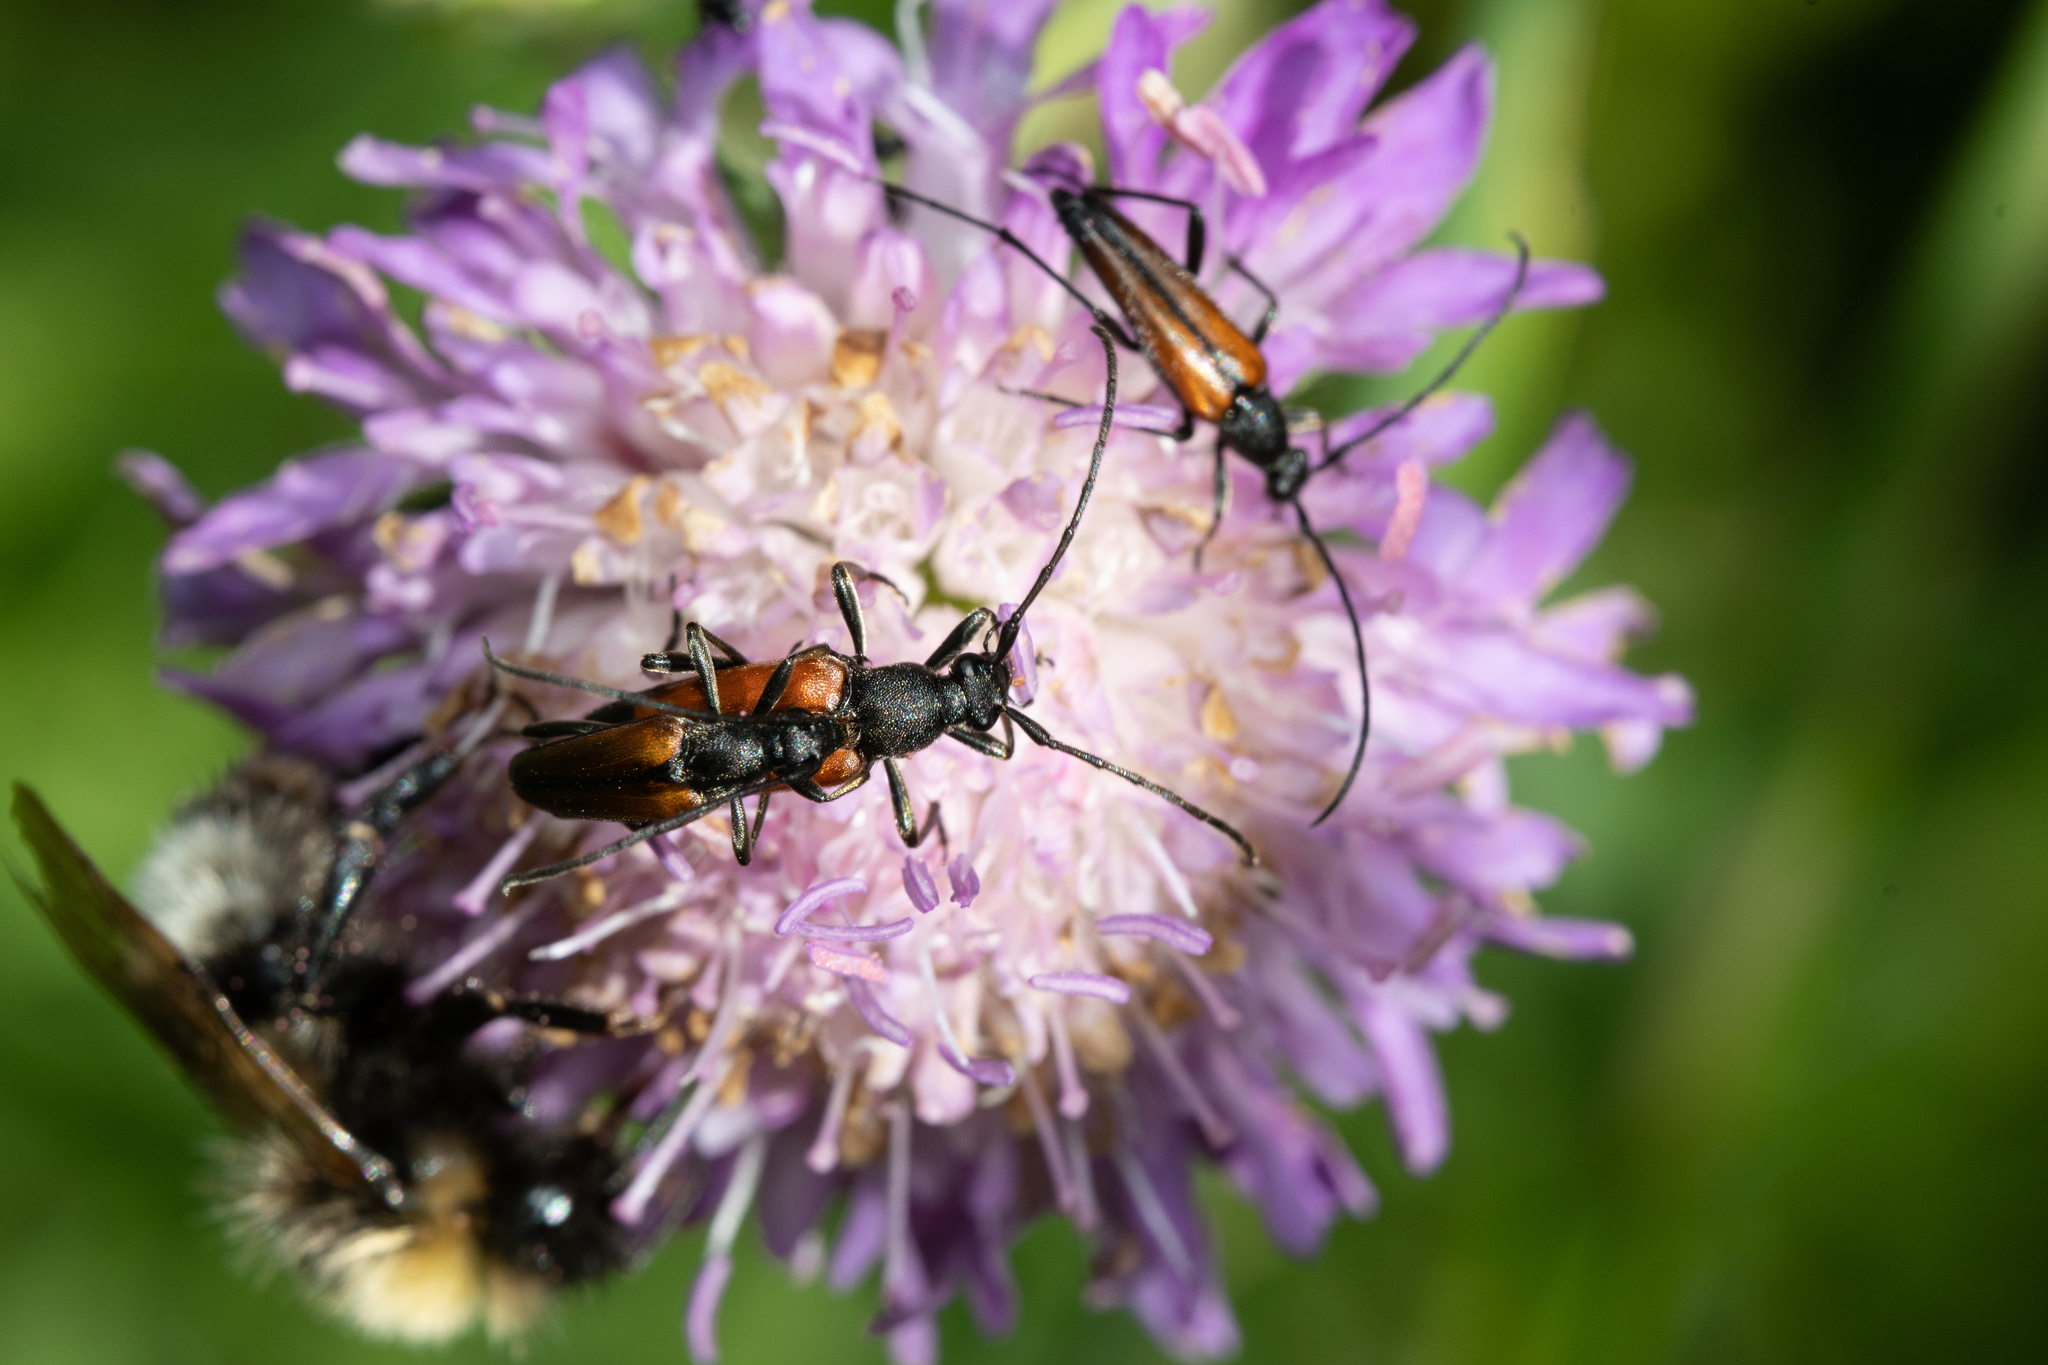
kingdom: Animalia
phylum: Arthropoda
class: Insecta
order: Coleoptera
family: Cerambycidae
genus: Stenurella
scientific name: Stenurella melanura
